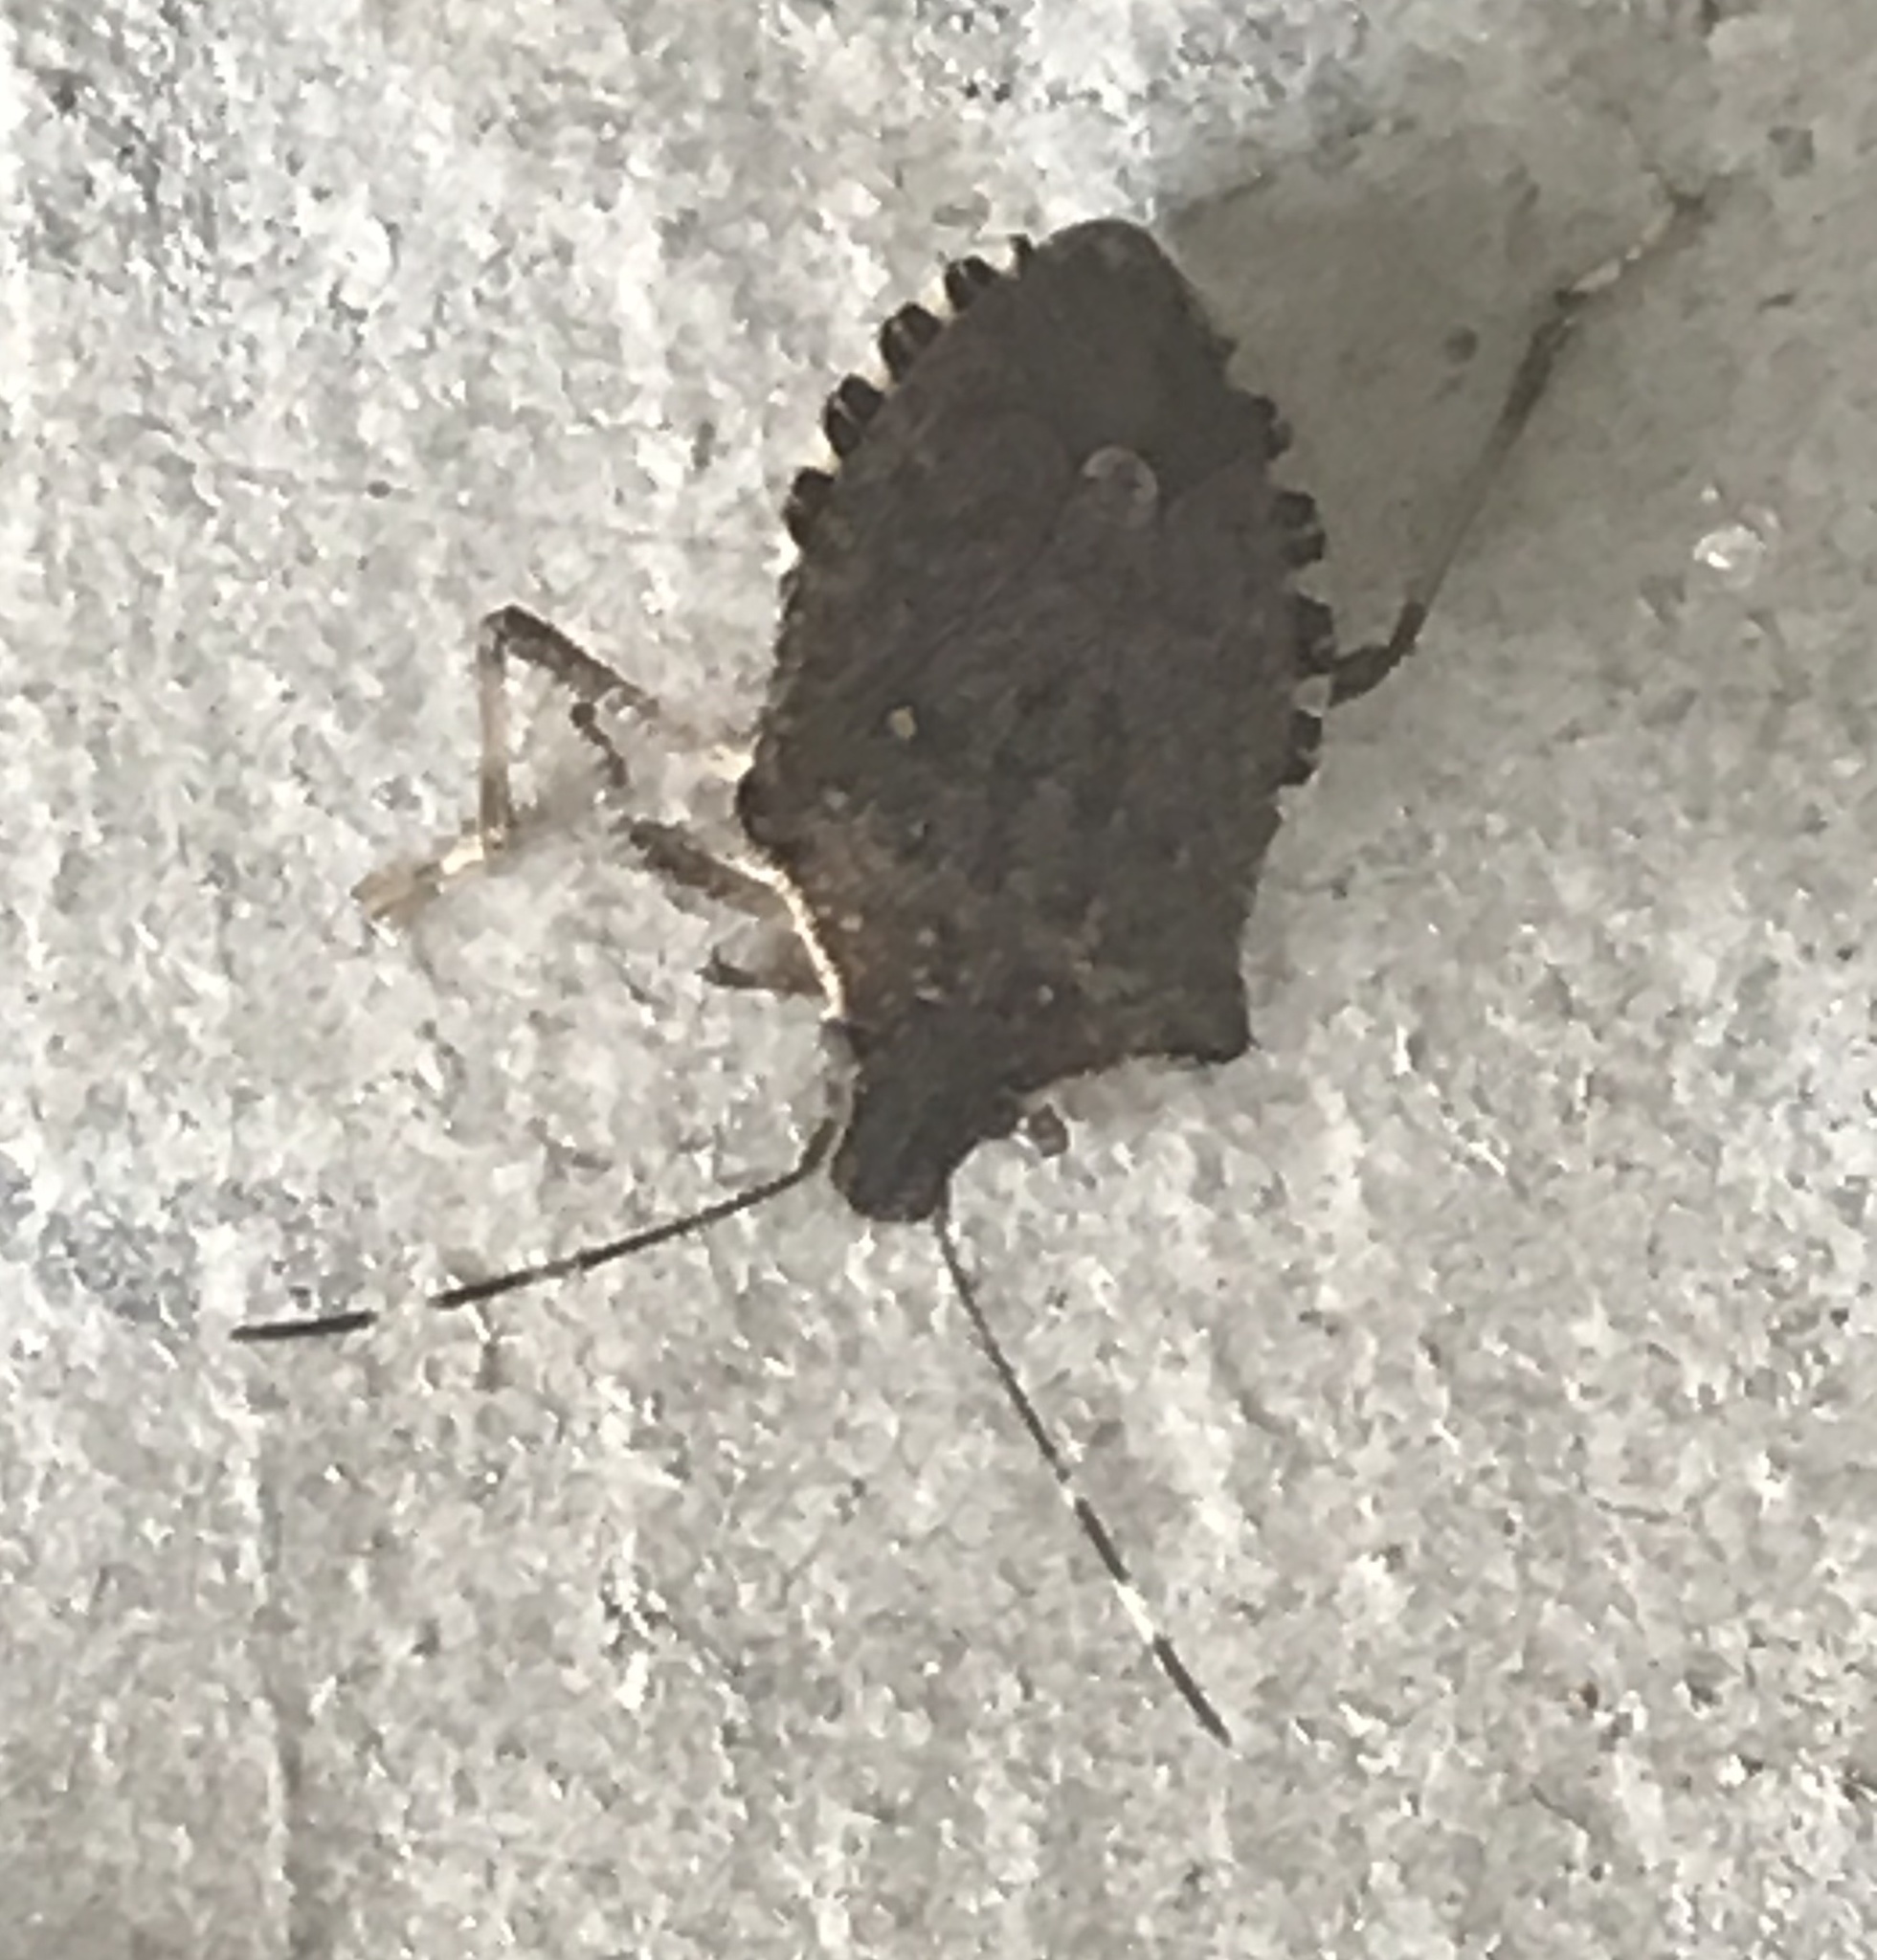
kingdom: Animalia
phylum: Arthropoda
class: Insecta
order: Hemiptera
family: Pentatomidae
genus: Halyomorpha
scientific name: Halyomorpha halys
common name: Brown marmorated stink bug
